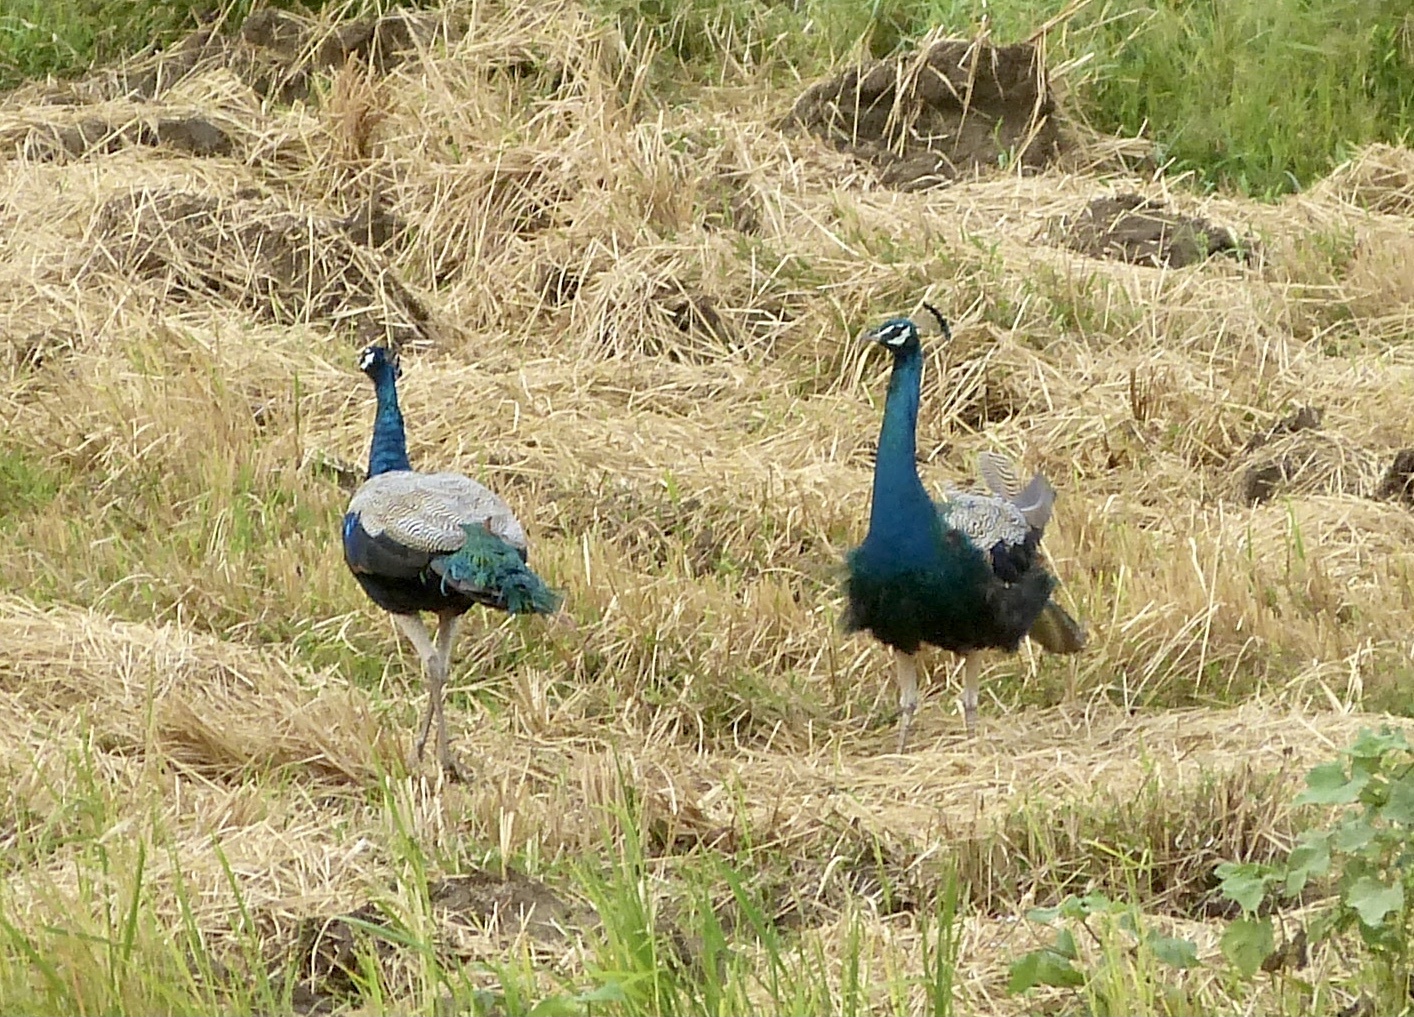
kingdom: Animalia
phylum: Chordata
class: Aves
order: Galliformes
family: Phasianidae
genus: Pavo
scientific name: Pavo cristatus
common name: Indian peafowl
